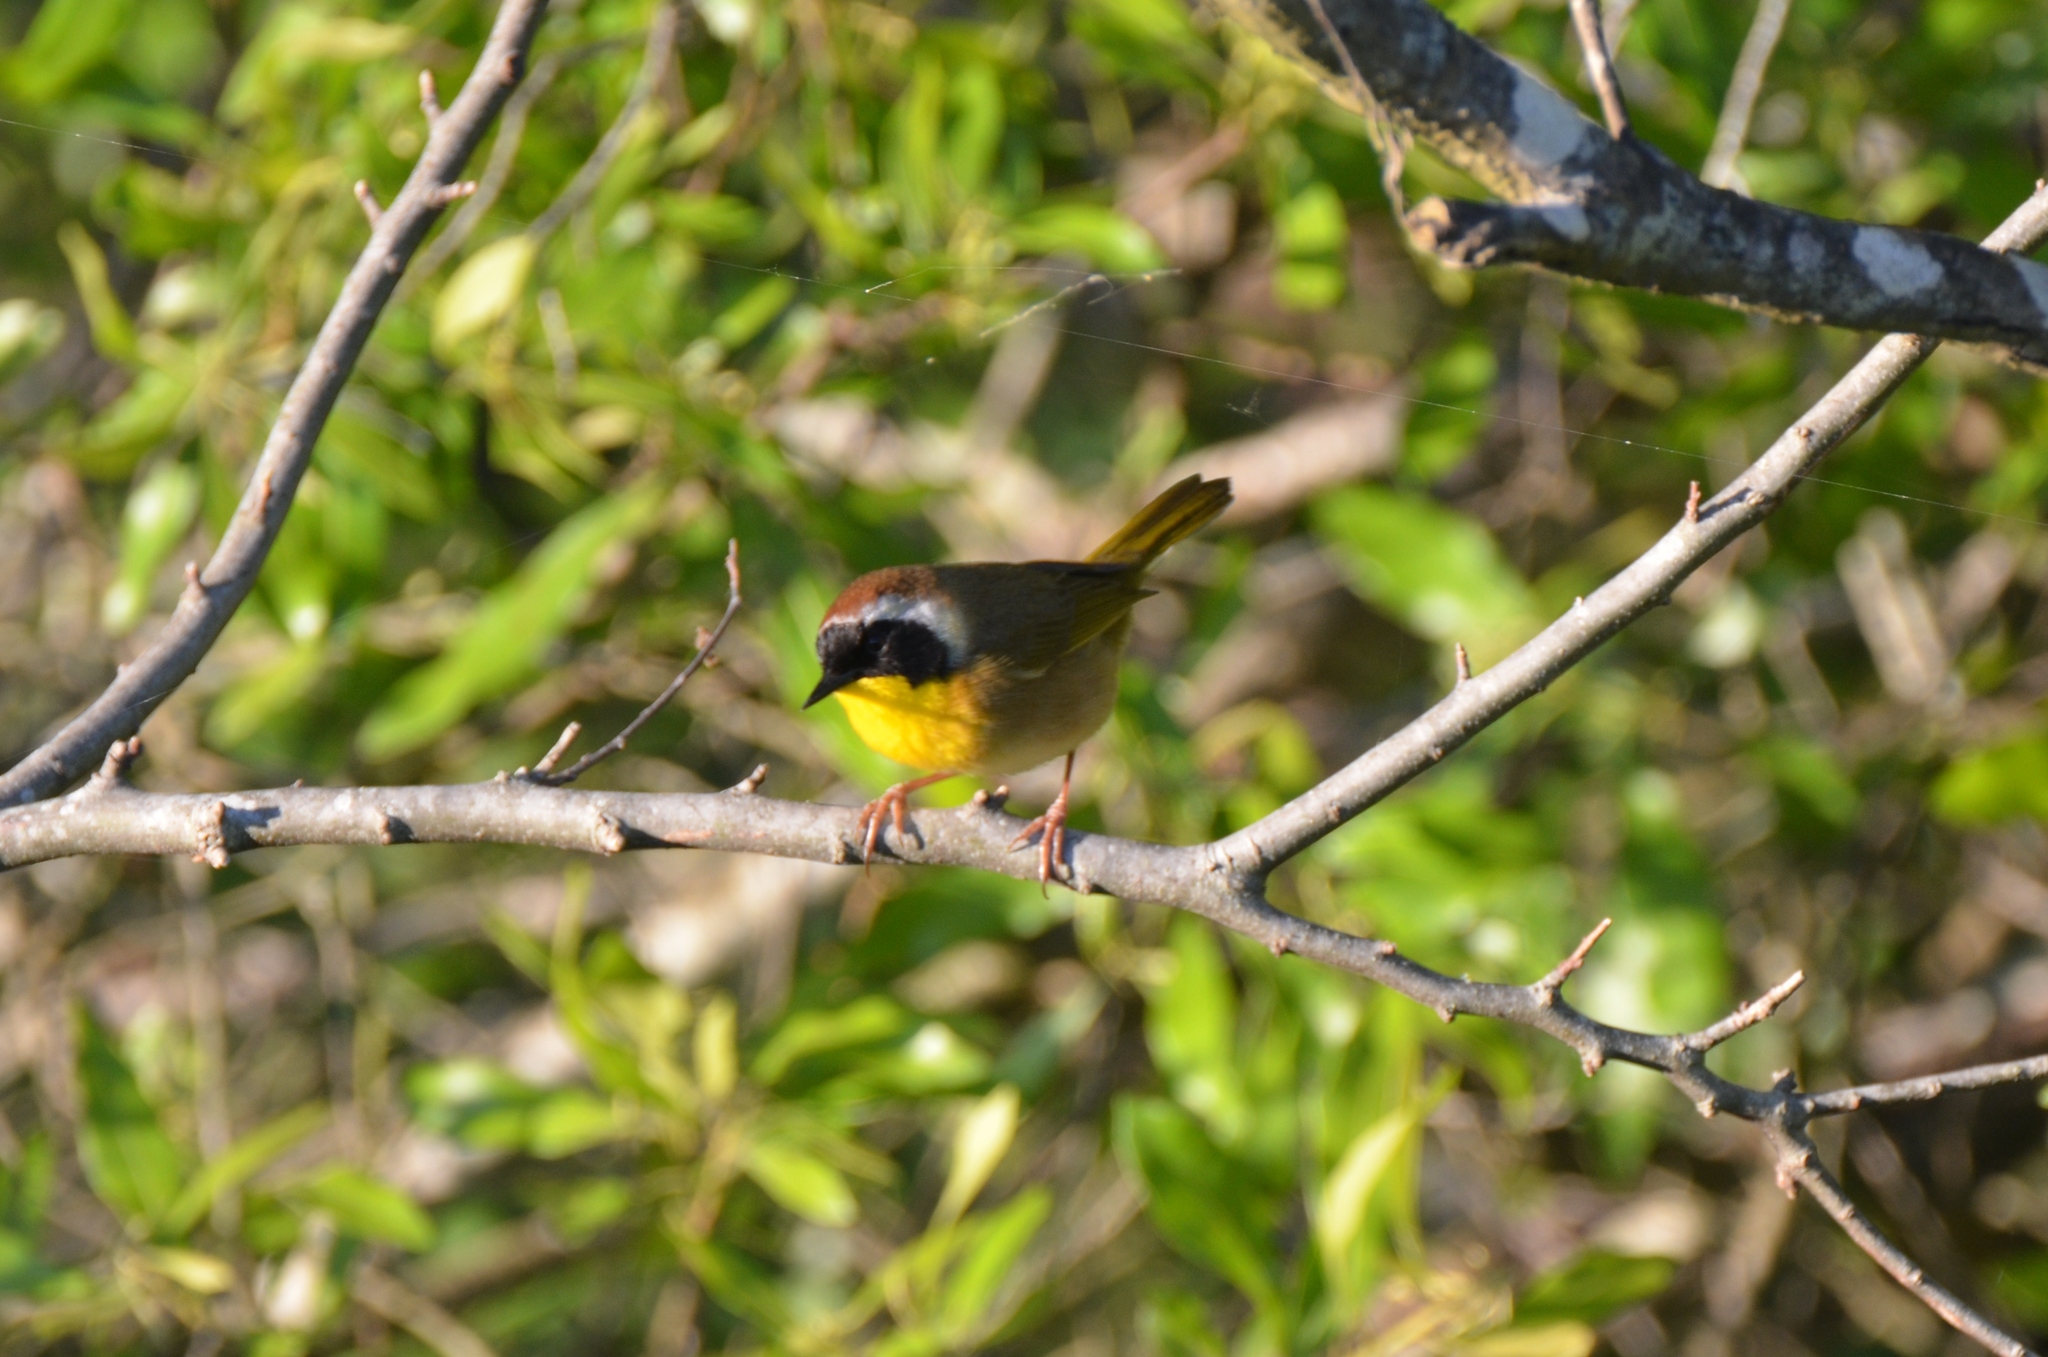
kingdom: Animalia
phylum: Chordata
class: Aves
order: Passeriformes
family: Parulidae
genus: Geothlypis
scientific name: Geothlypis trichas
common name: Common yellowthroat
